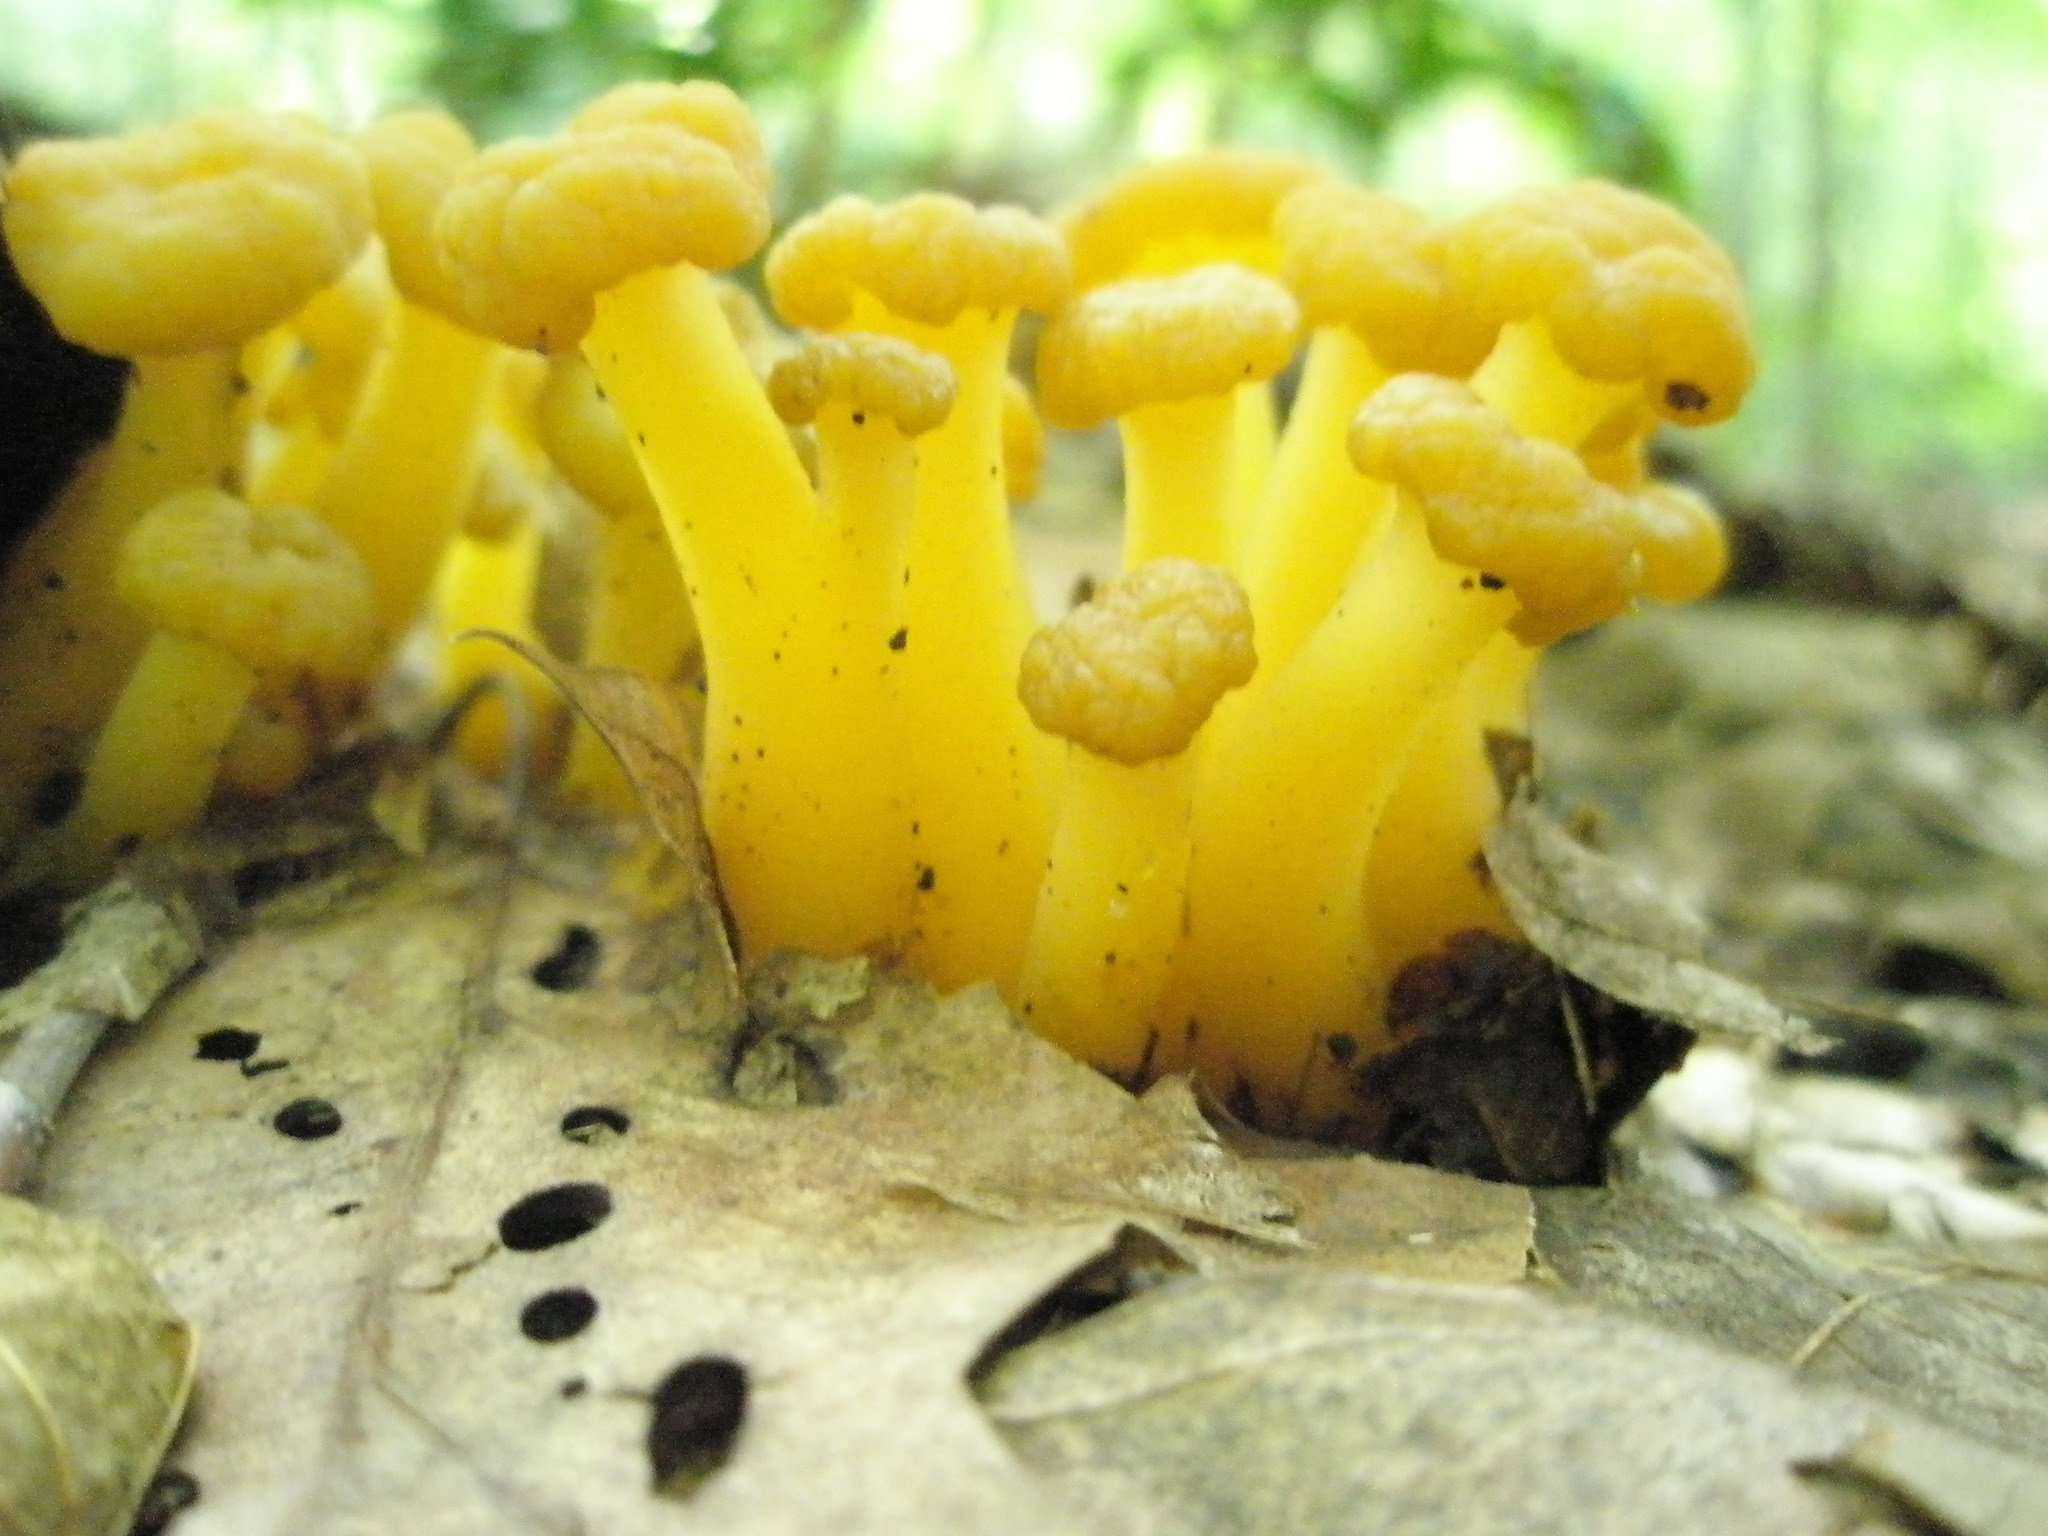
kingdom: Fungi
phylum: Ascomycota
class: Leotiomycetes
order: Leotiales
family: Leotiaceae
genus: Leotia
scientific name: Leotia lubrica
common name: Jellybaby
